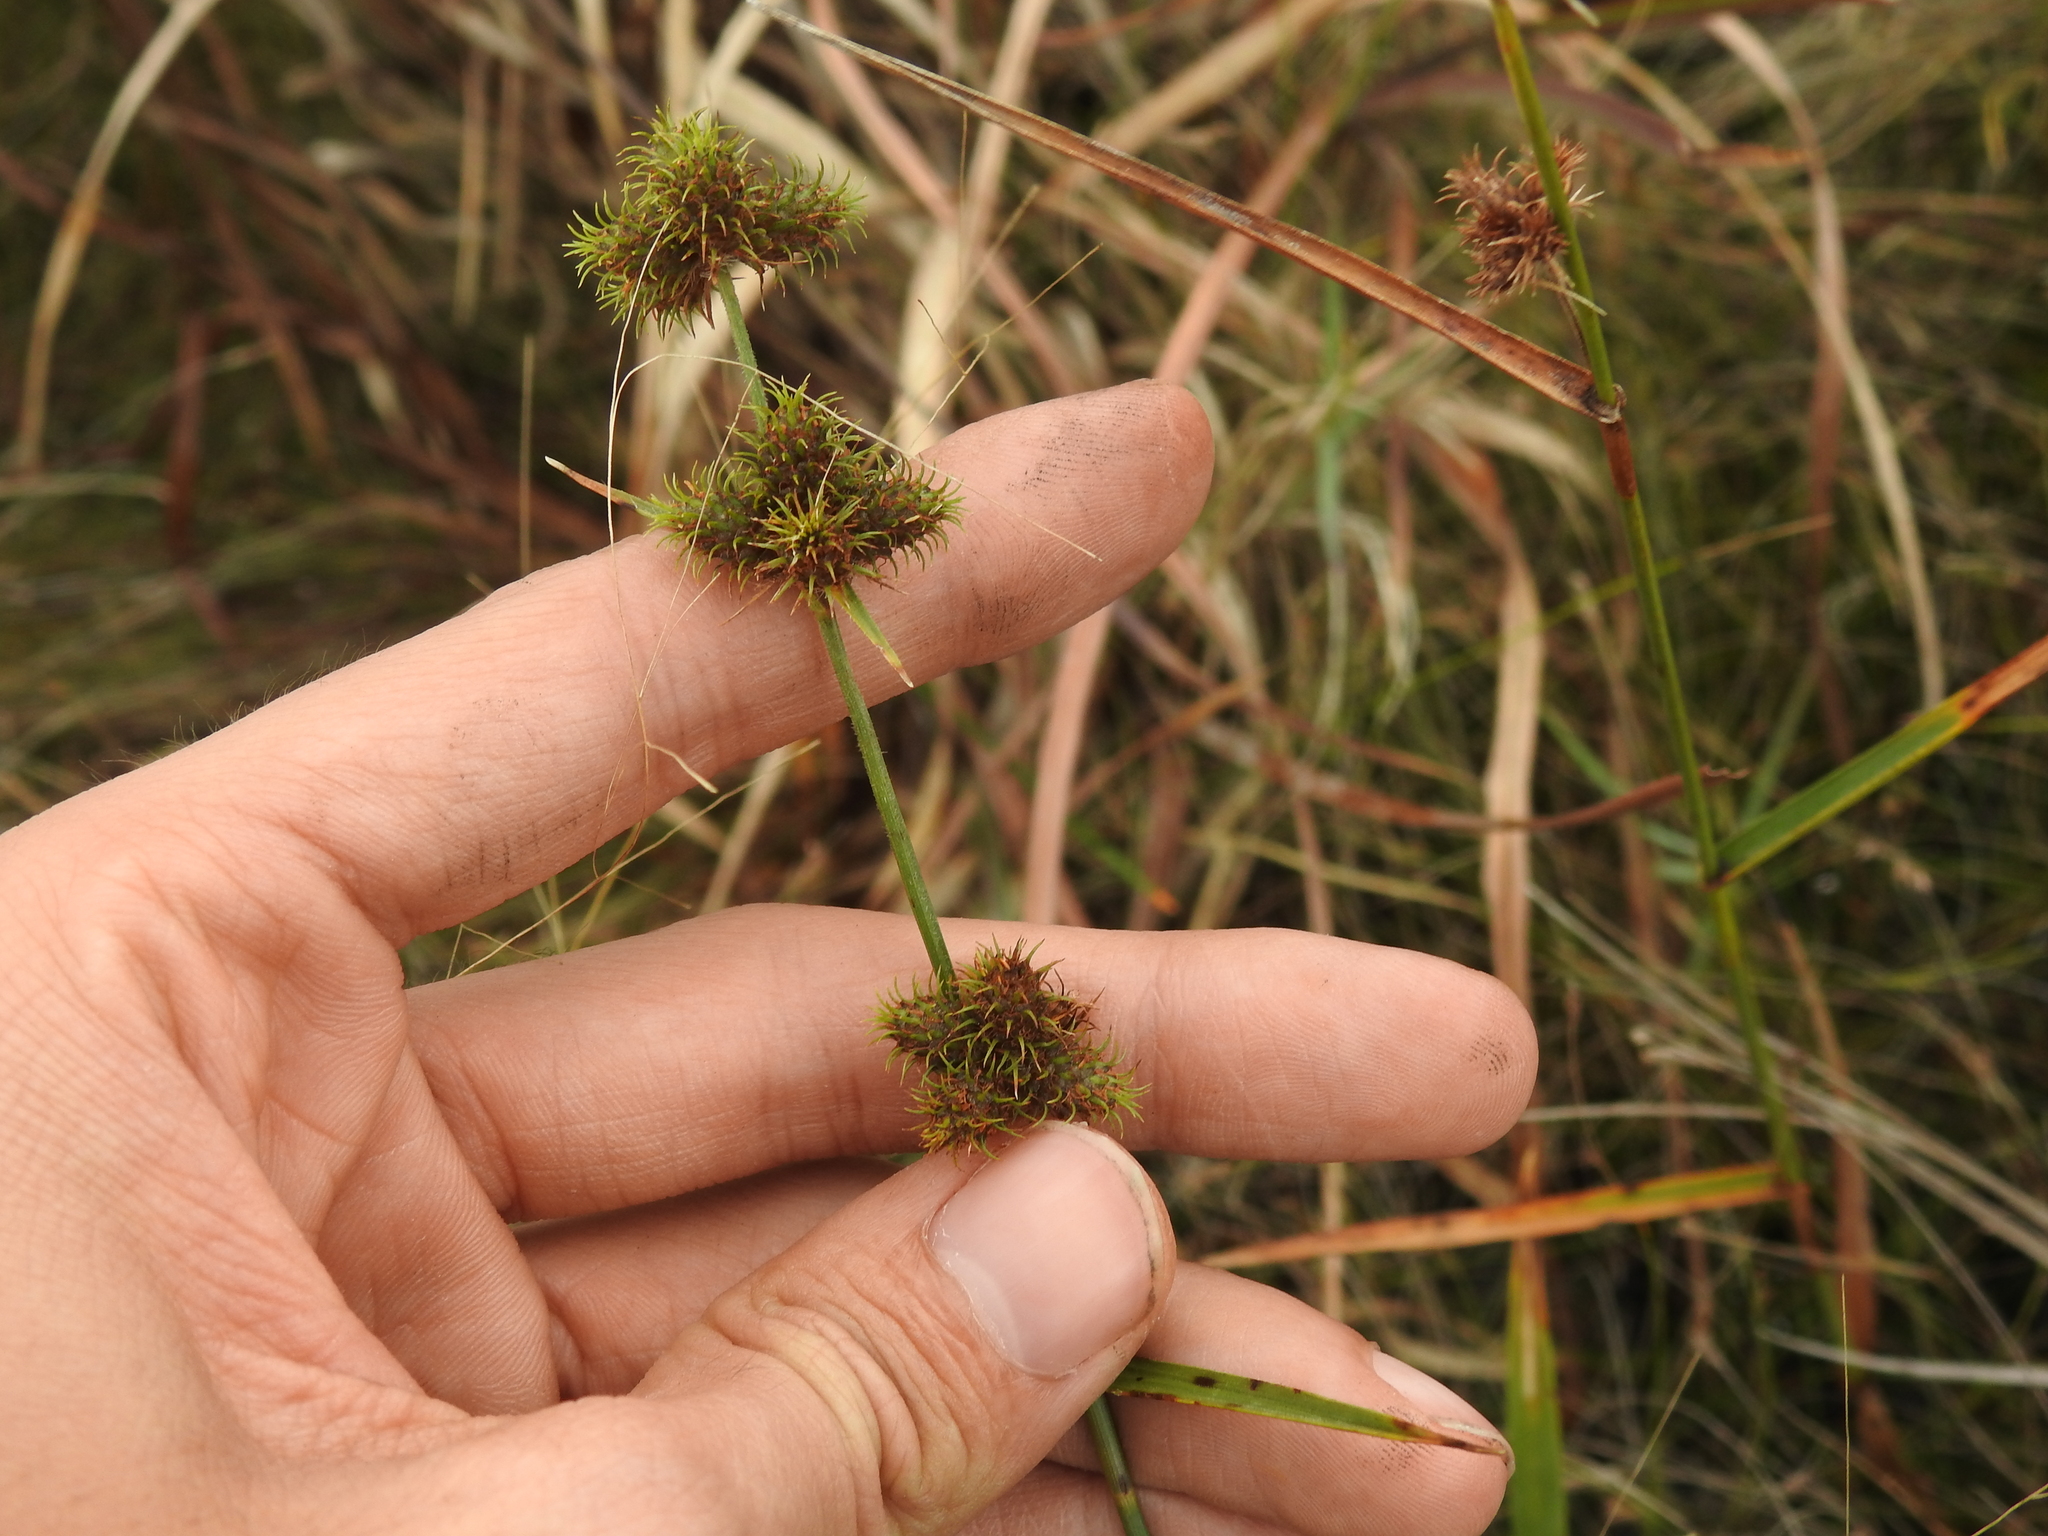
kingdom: Plantae
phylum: Tracheophyta
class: Liliopsida
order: Poales
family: Cyperaceae
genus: Fuirena
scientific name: Fuirena breviseta
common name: Saltmarsh umbrella sedge
